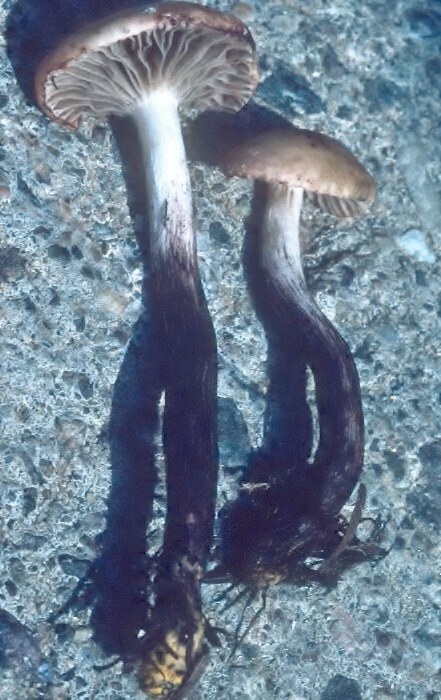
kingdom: Fungi
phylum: Basidiomycota
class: Agaricomycetes
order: Boletales
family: Gomphidiaceae
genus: Gomphidius
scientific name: Gomphidius maculatus
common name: Larch spike
